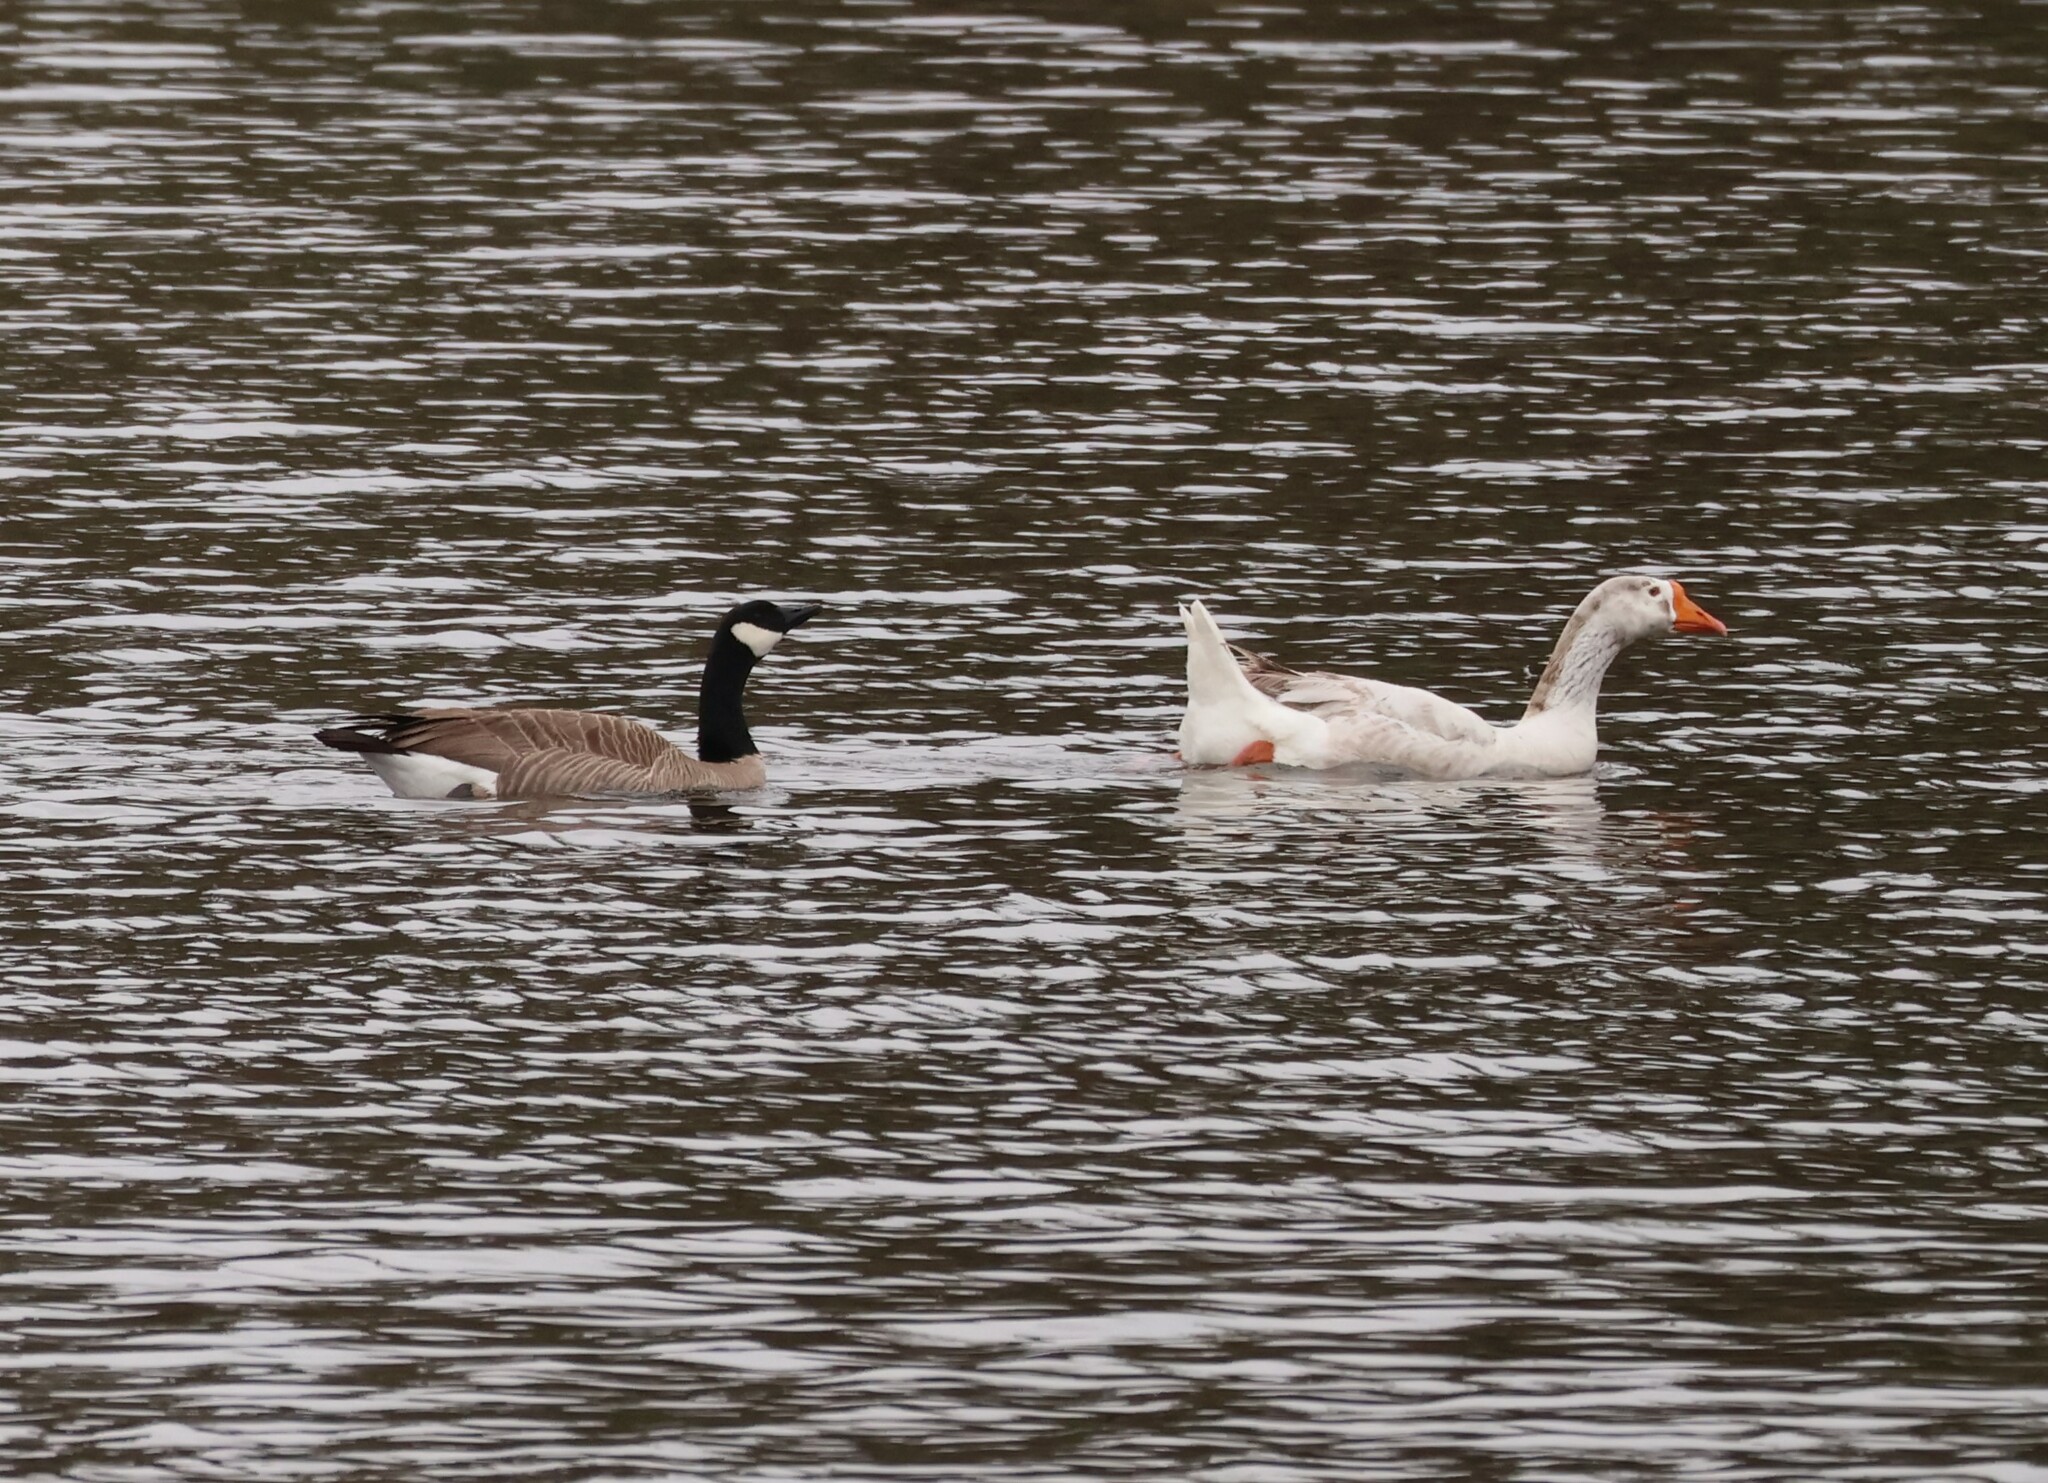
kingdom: Animalia
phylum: Chordata
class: Aves
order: Anseriformes
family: Anatidae
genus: Branta
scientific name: Branta canadensis
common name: Canada goose
